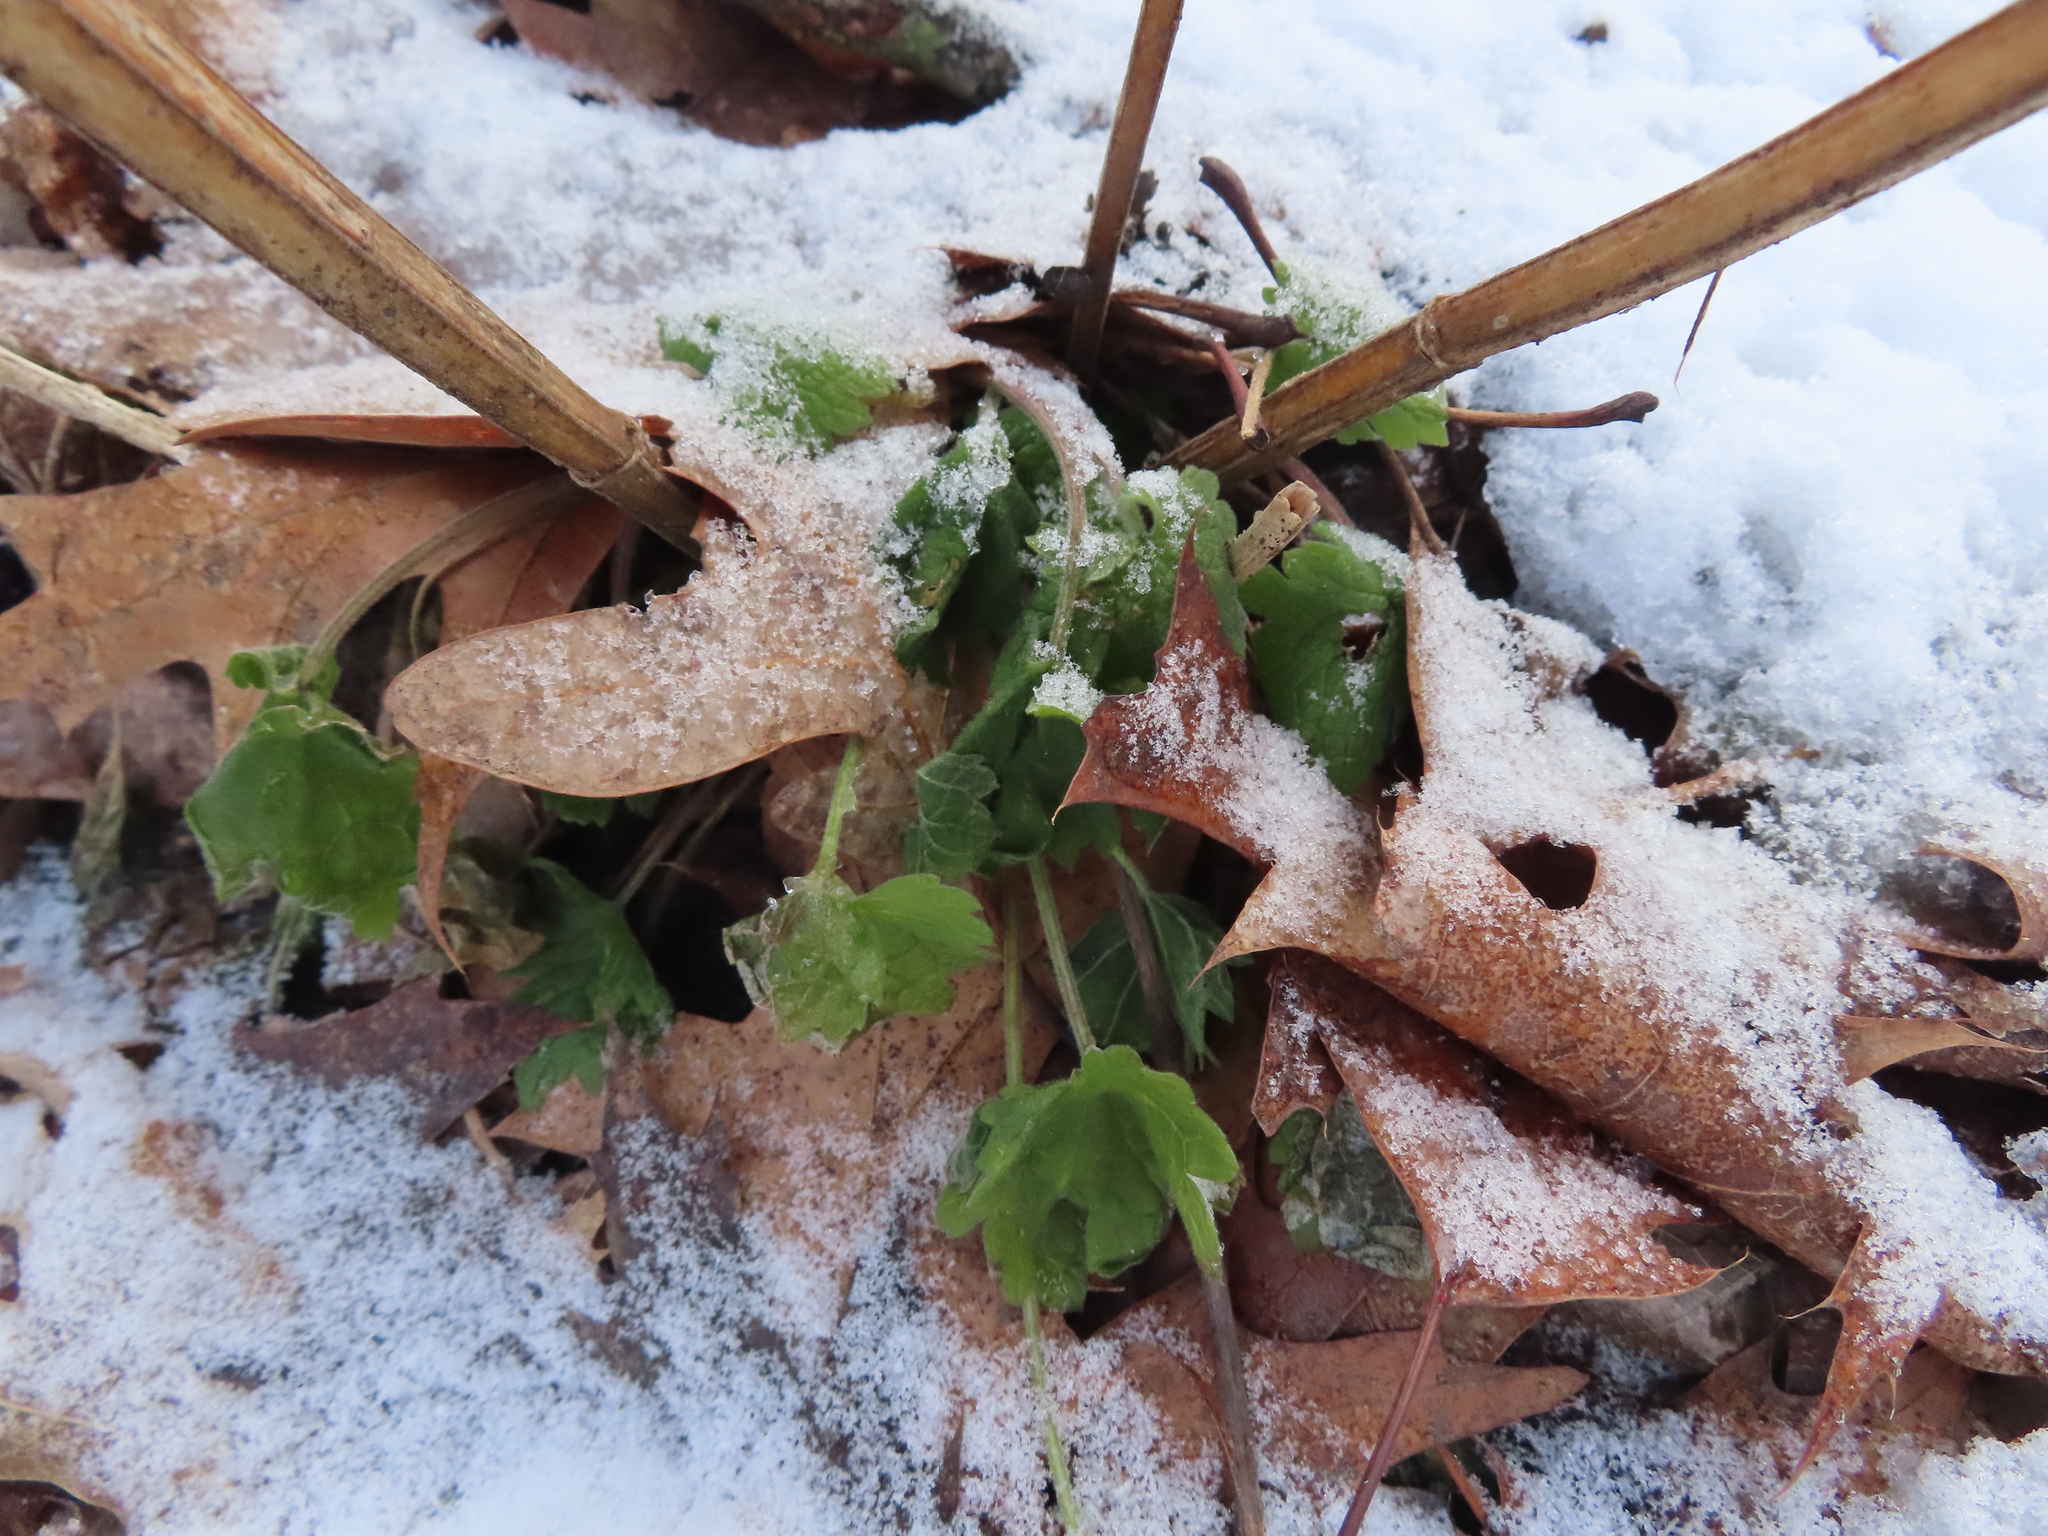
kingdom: Plantae
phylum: Tracheophyta
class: Magnoliopsida
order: Lamiales
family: Lamiaceae
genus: Leonurus
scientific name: Leonurus cardiaca
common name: Motherwort
